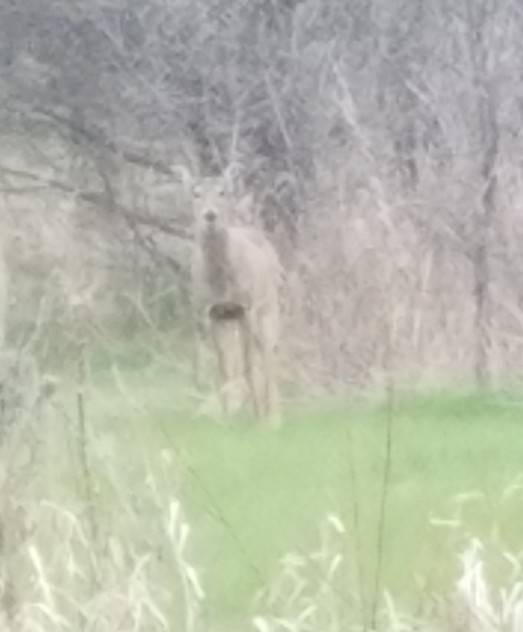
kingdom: Animalia
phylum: Chordata
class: Mammalia
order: Artiodactyla
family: Cervidae
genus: Odocoileus
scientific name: Odocoileus virginianus
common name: White-tailed deer
